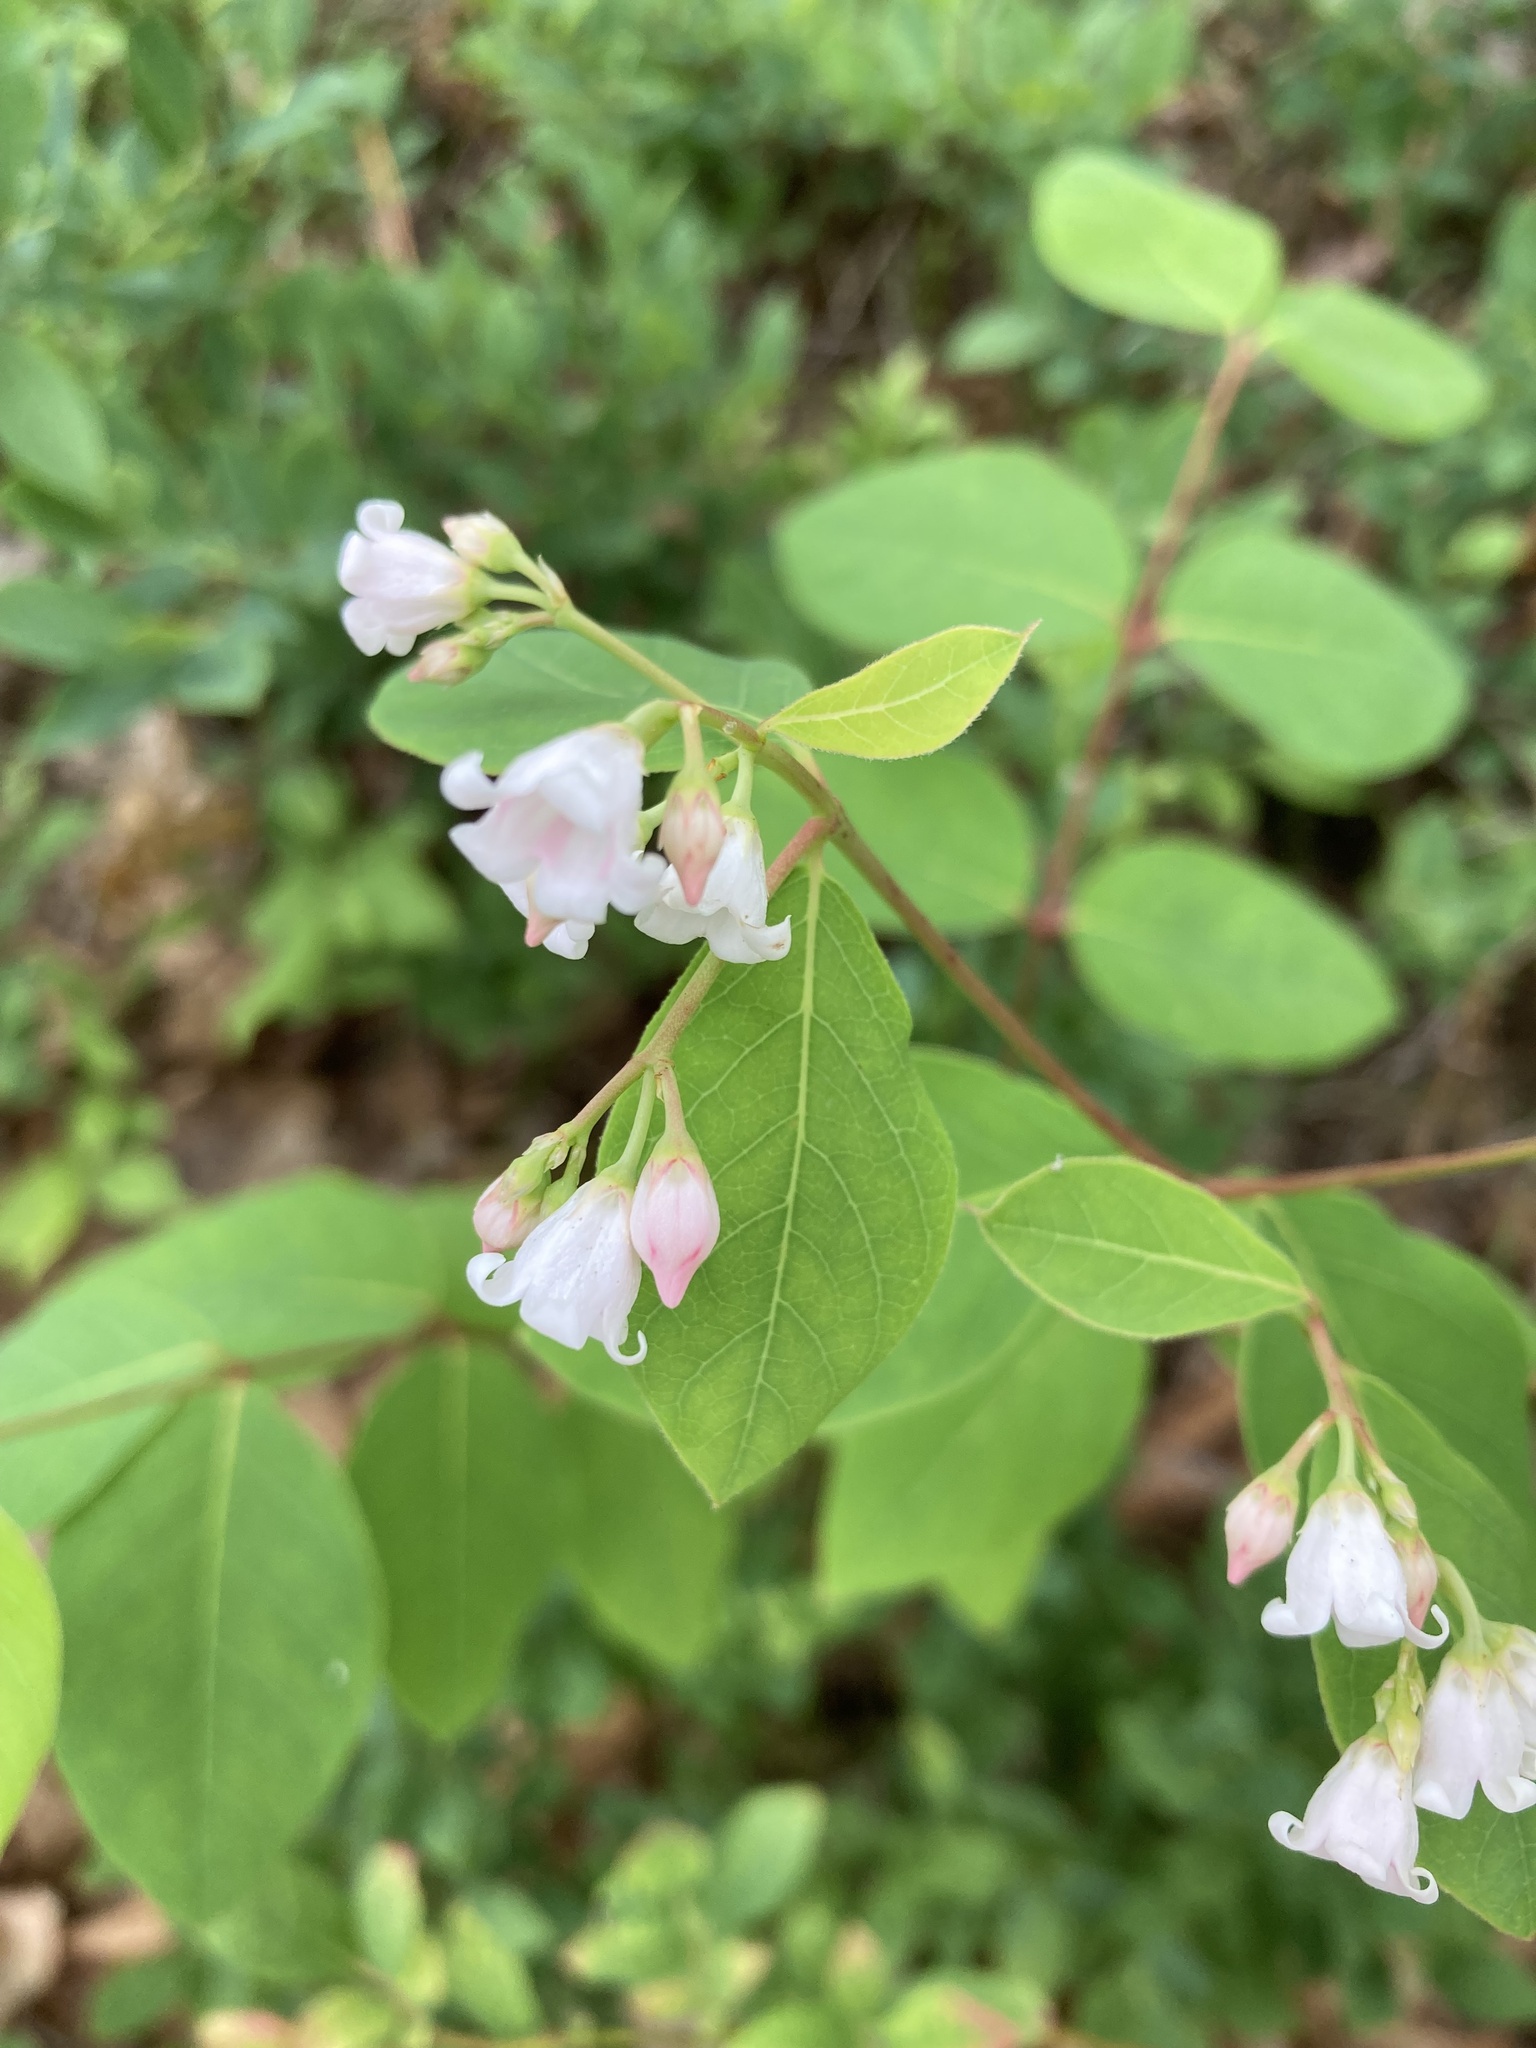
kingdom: Plantae
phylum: Tracheophyta
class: Magnoliopsida
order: Gentianales
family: Apocynaceae
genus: Apocynum
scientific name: Apocynum androsaemifolium
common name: Spreading dogbane
